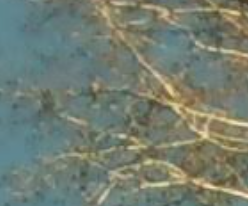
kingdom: Animalia
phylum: Chordata
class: Aves
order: Accipitriformes
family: Accipitridae
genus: Buteo
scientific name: Buteo lineatus
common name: Red-shouldered hawk
